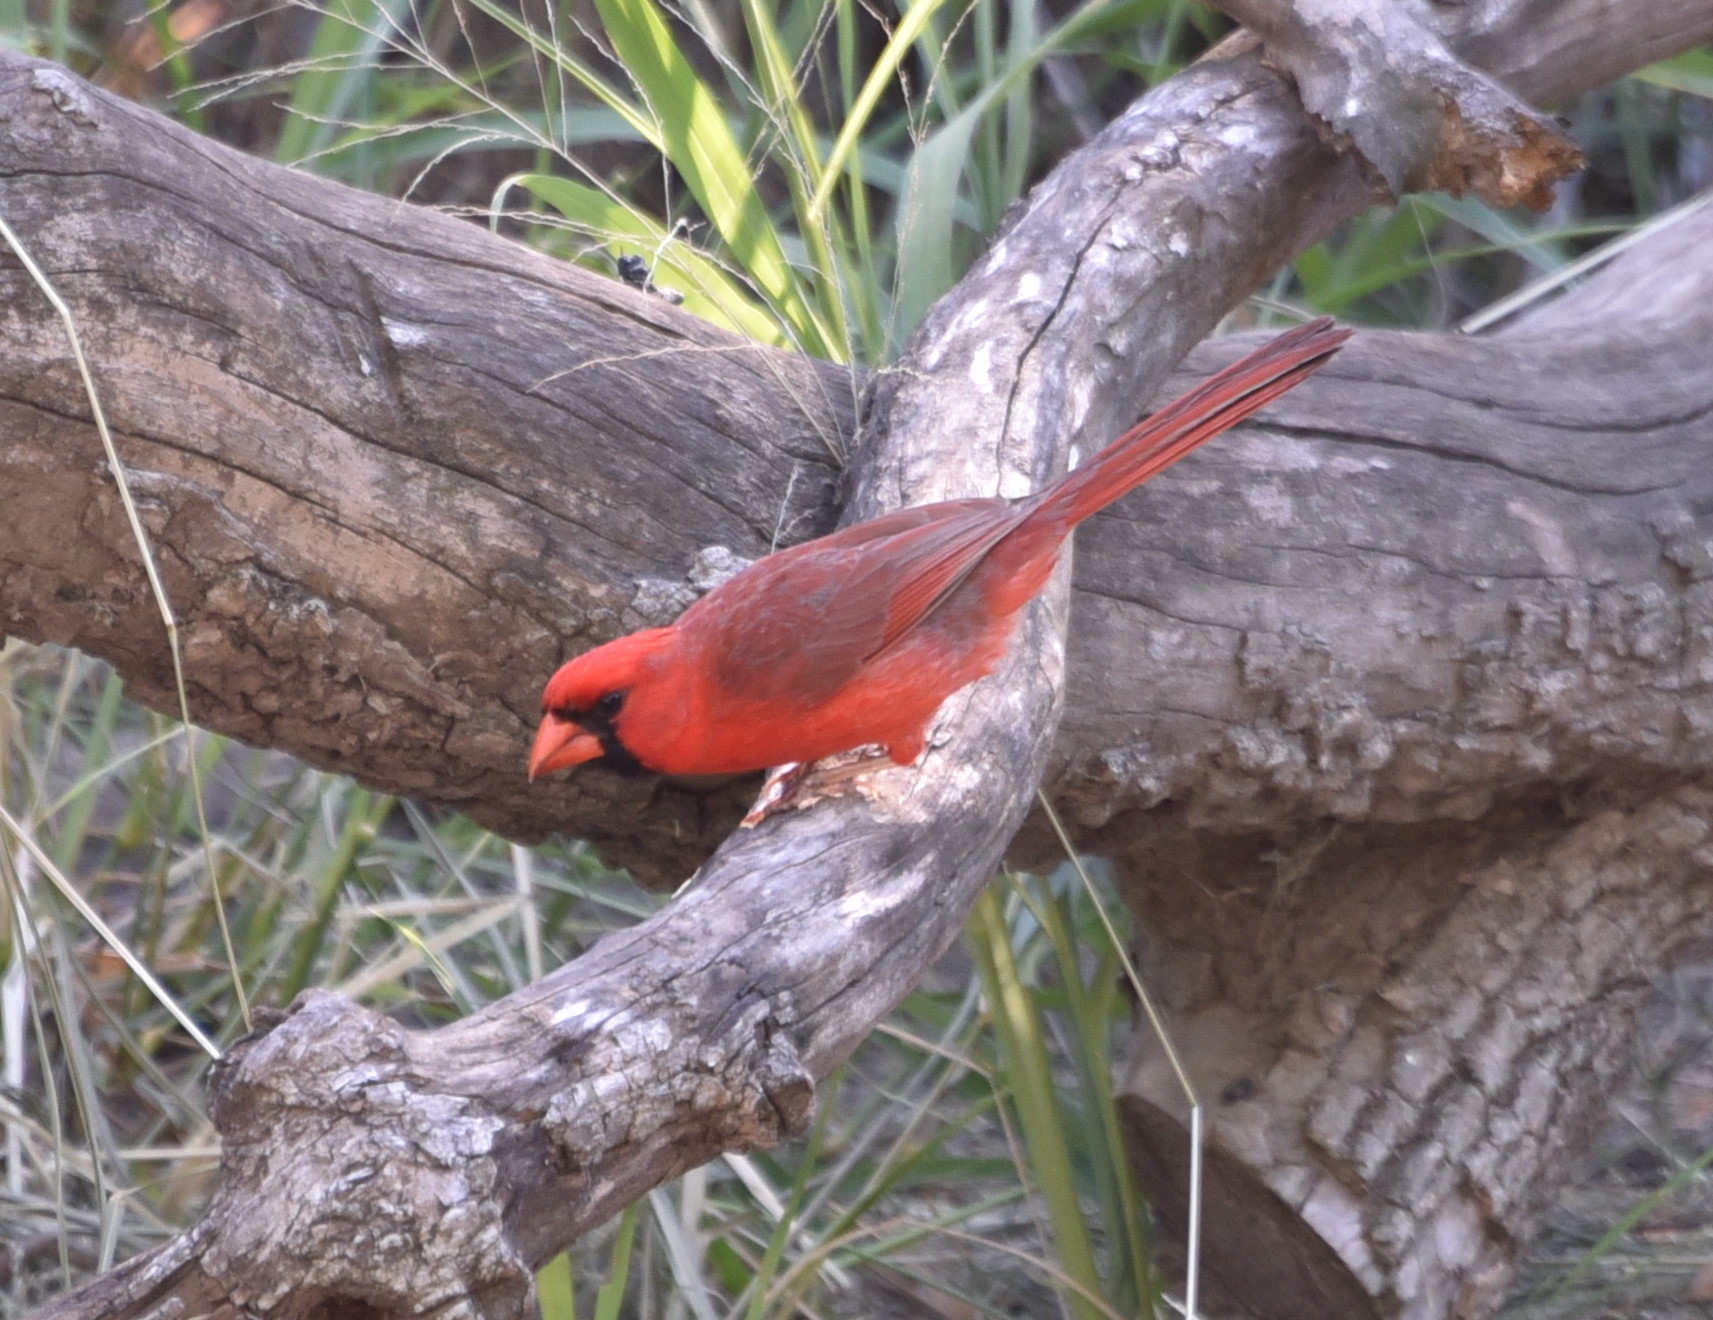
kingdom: Animalia
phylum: Chordata
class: Aves
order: Passeriformes
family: Cardinalidae
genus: Cardinalis
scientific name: Cardinalis cardinalis
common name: Northern cardinal
